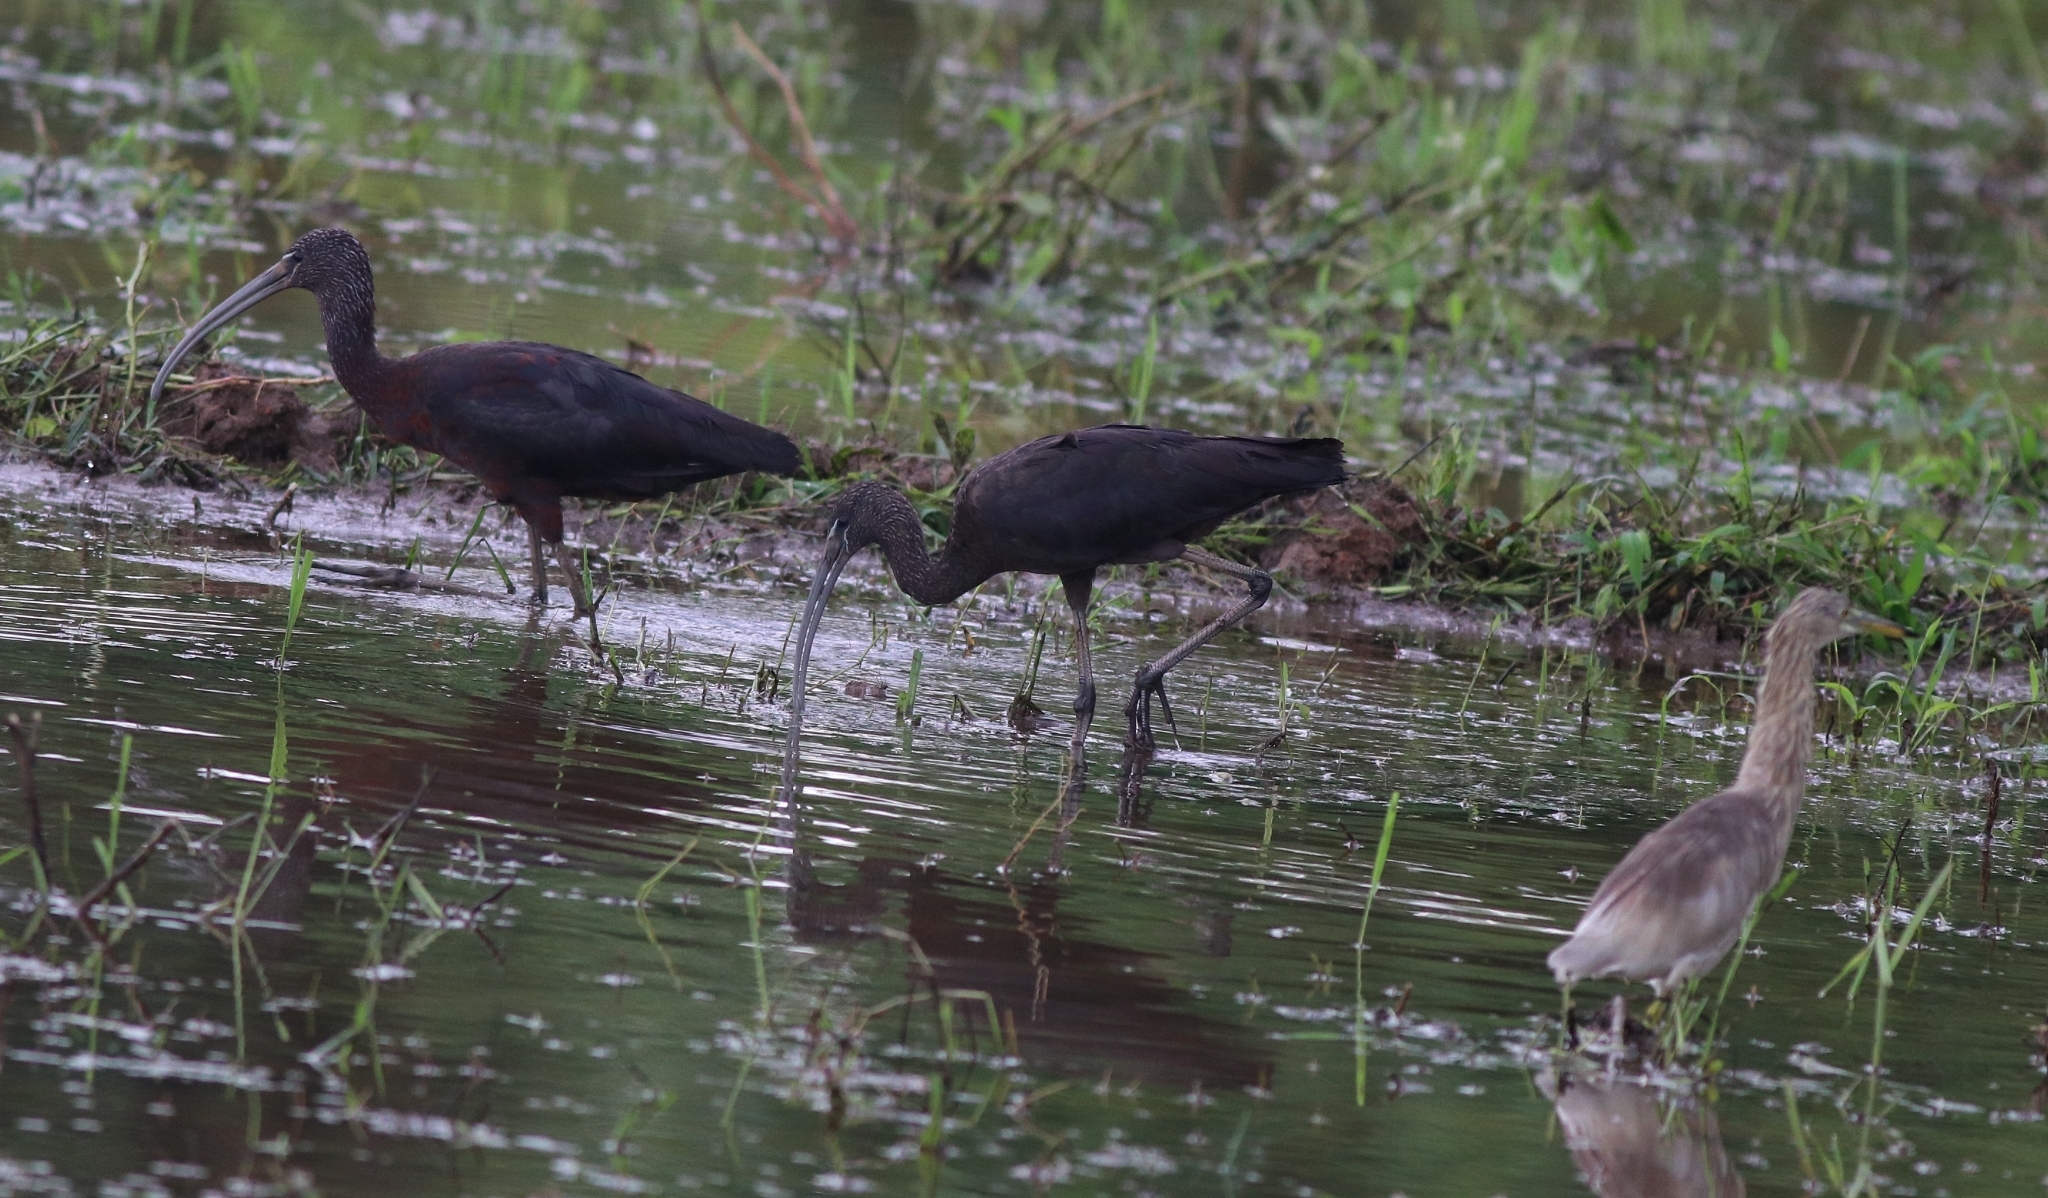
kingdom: Animalia
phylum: Chordata
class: Aves
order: Pelecaniformes
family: Threskiornithidae
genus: Plegadis
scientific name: Plegadis falcinellus
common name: Glossy ibis
